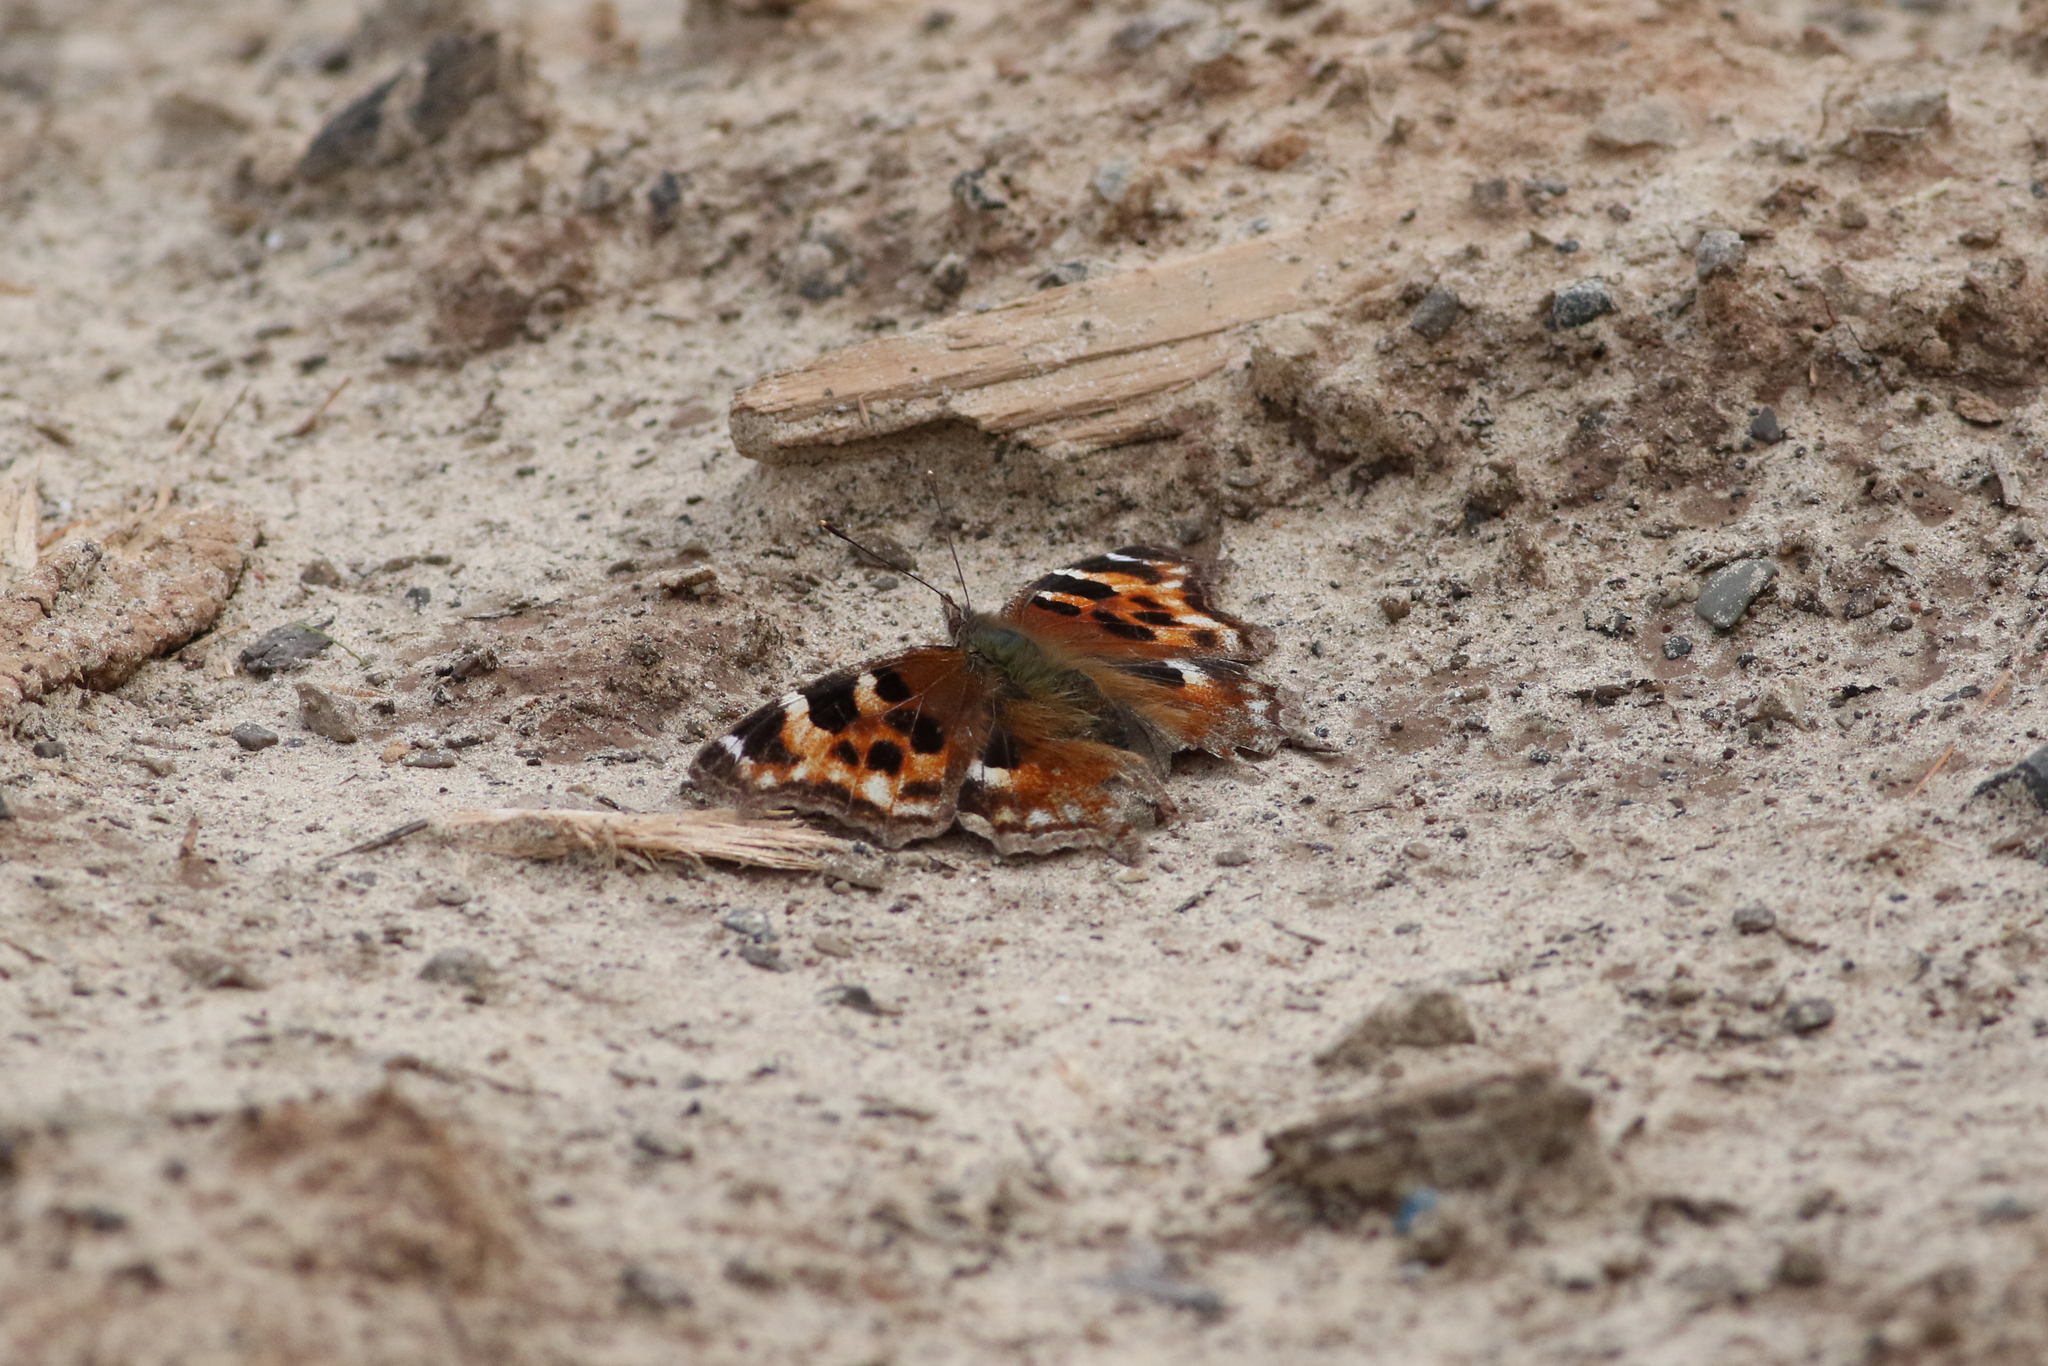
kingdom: Animalia
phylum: Arthropoda
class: Insecta
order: Lepidoptera
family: Nymphalidae
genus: Polygonia
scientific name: Polygonia vaualbum
